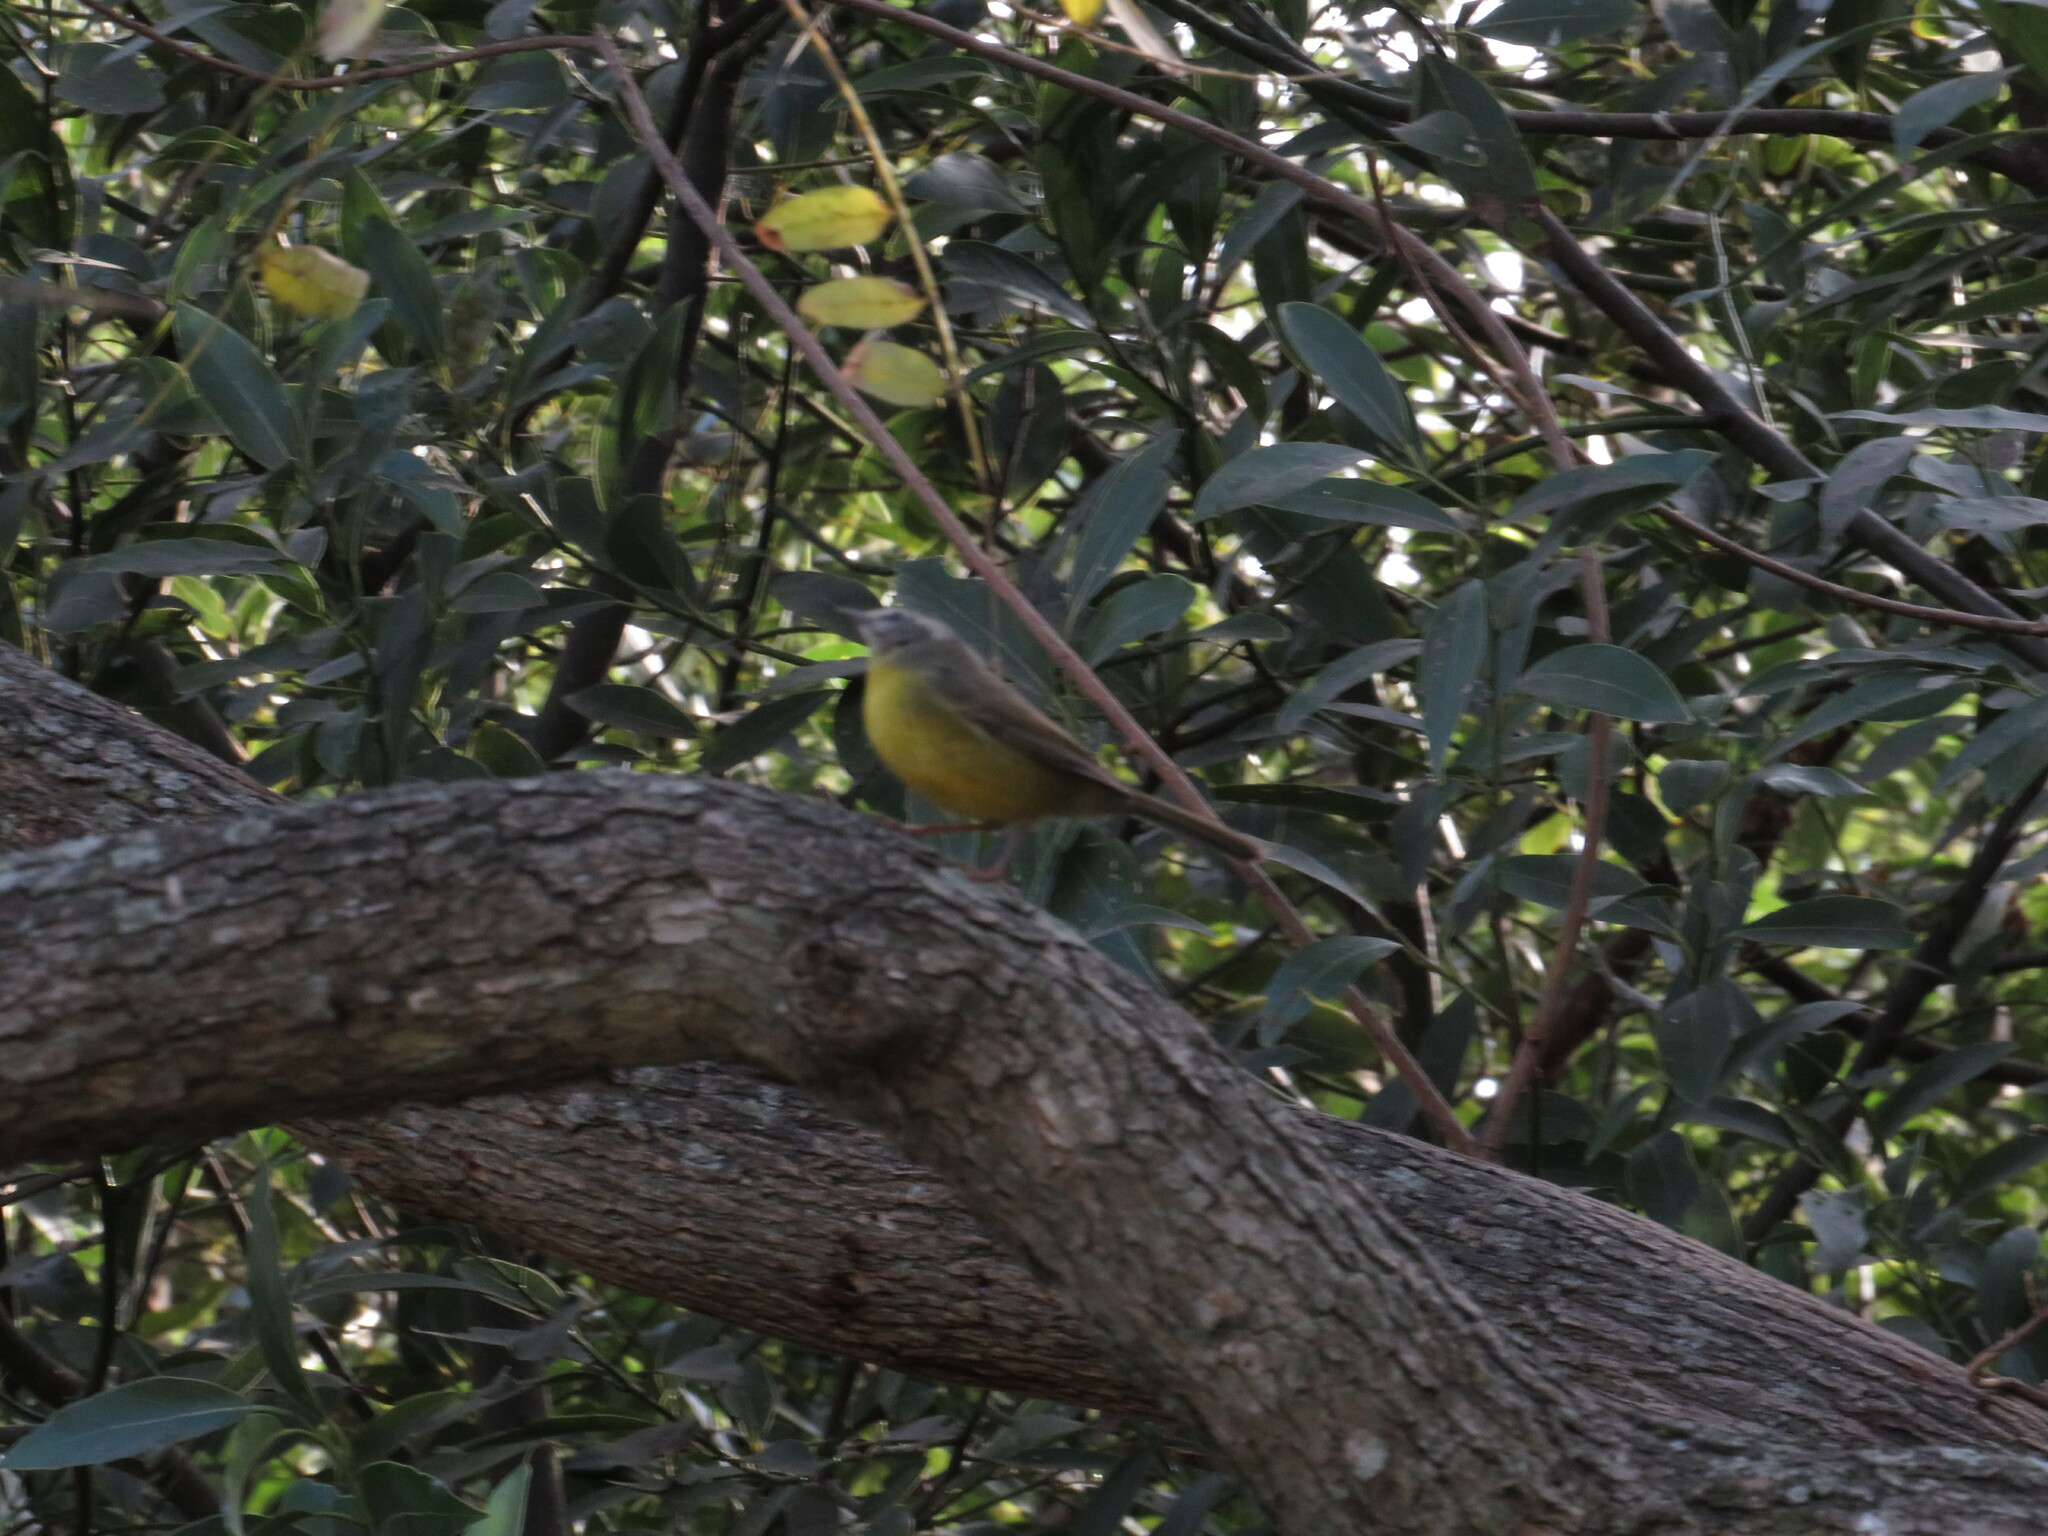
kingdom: Animalia
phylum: Chordata
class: Aves
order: Passeriformes
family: Parulidae
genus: Basileuterus
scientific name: Basileuterus culicivorus
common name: Golden-crowned warbler
